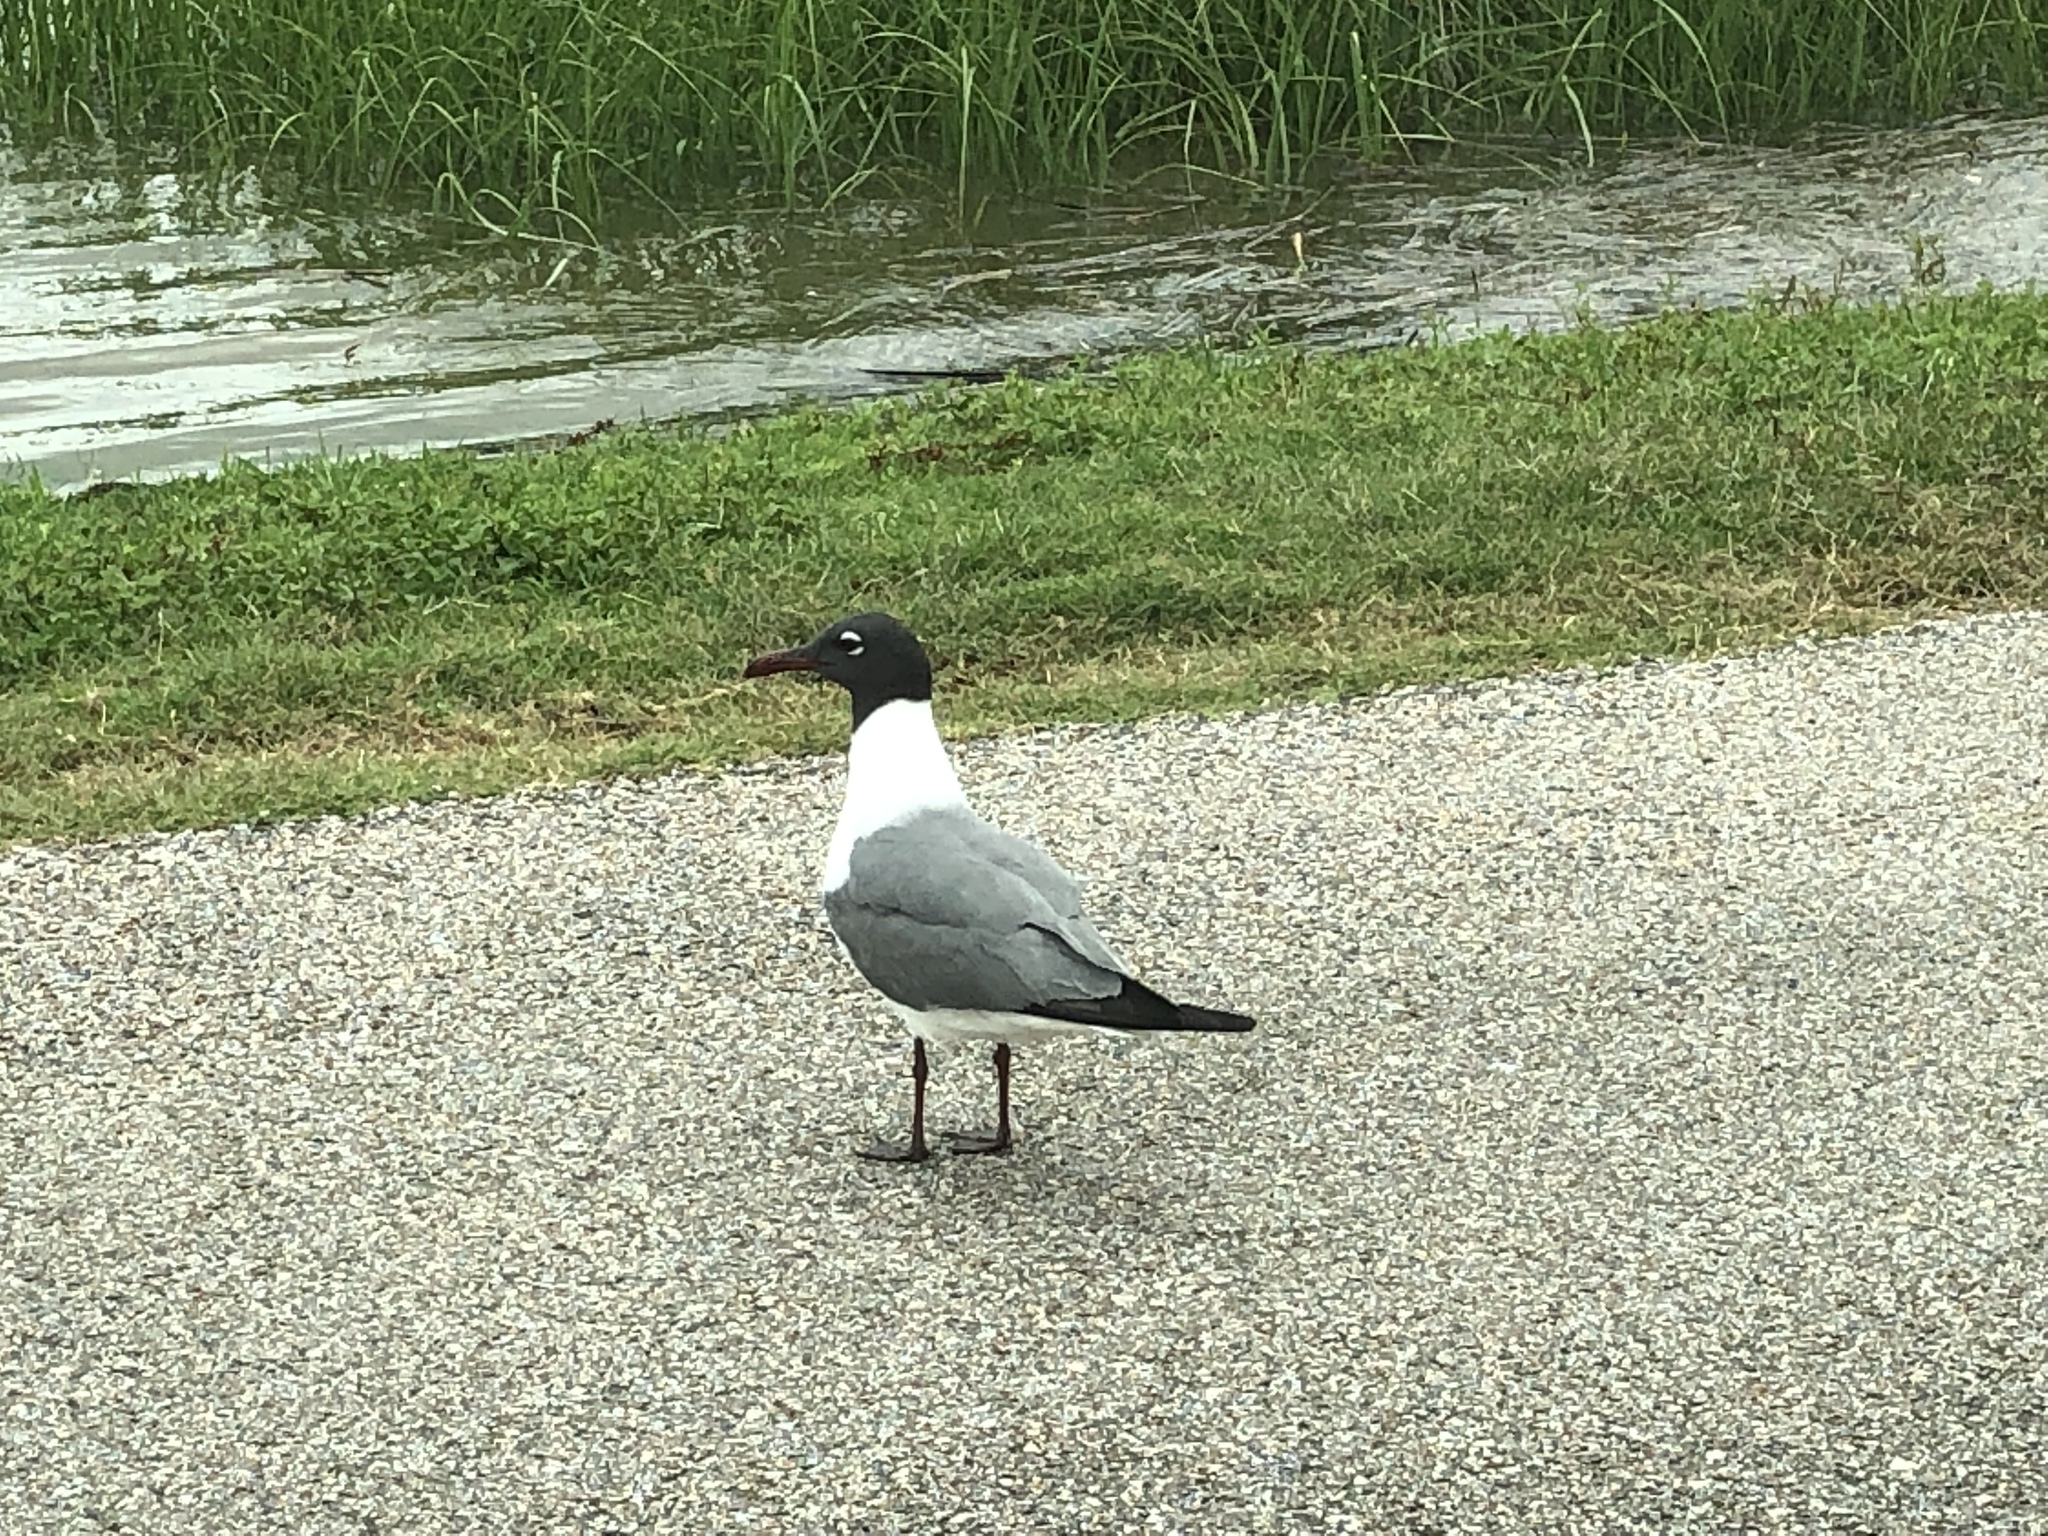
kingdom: Animalia
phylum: Chordata
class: Aves
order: Charadriiformes
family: Laridae
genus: Leucophaeus
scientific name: Leucophaeus atricilla
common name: Laughing gull
